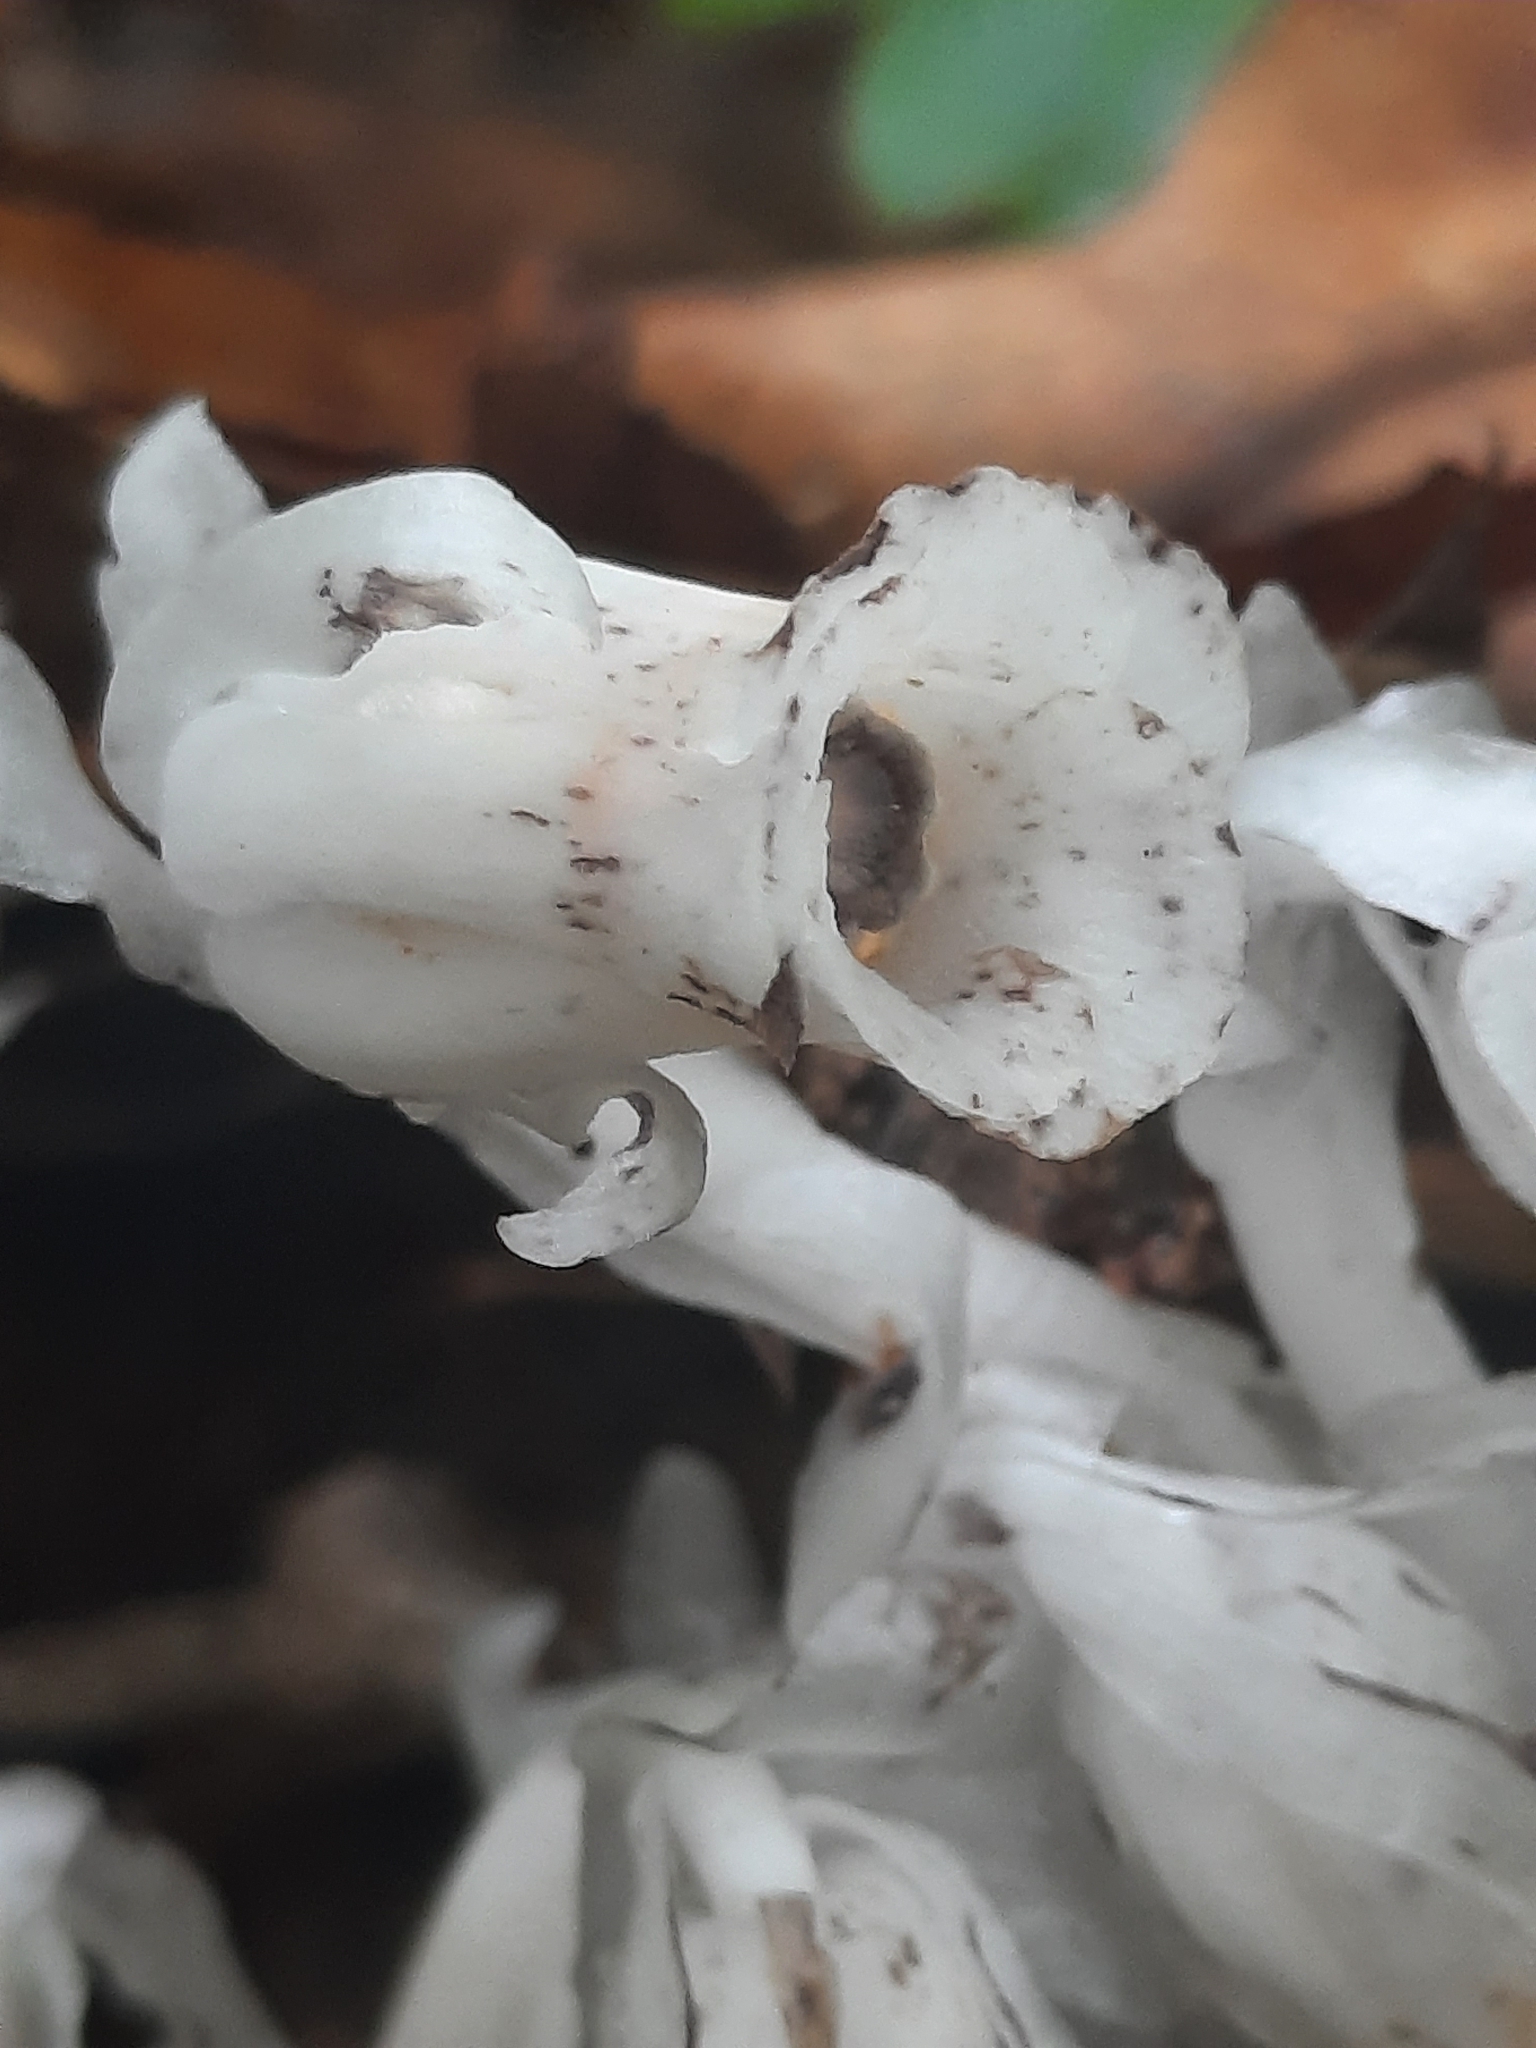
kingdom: Plantae
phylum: Tracheophyta
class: Magnoliopsida
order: Ericales
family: Ericaceae
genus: Monotropa
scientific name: Monotropa uniflora
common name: Convulsion root
